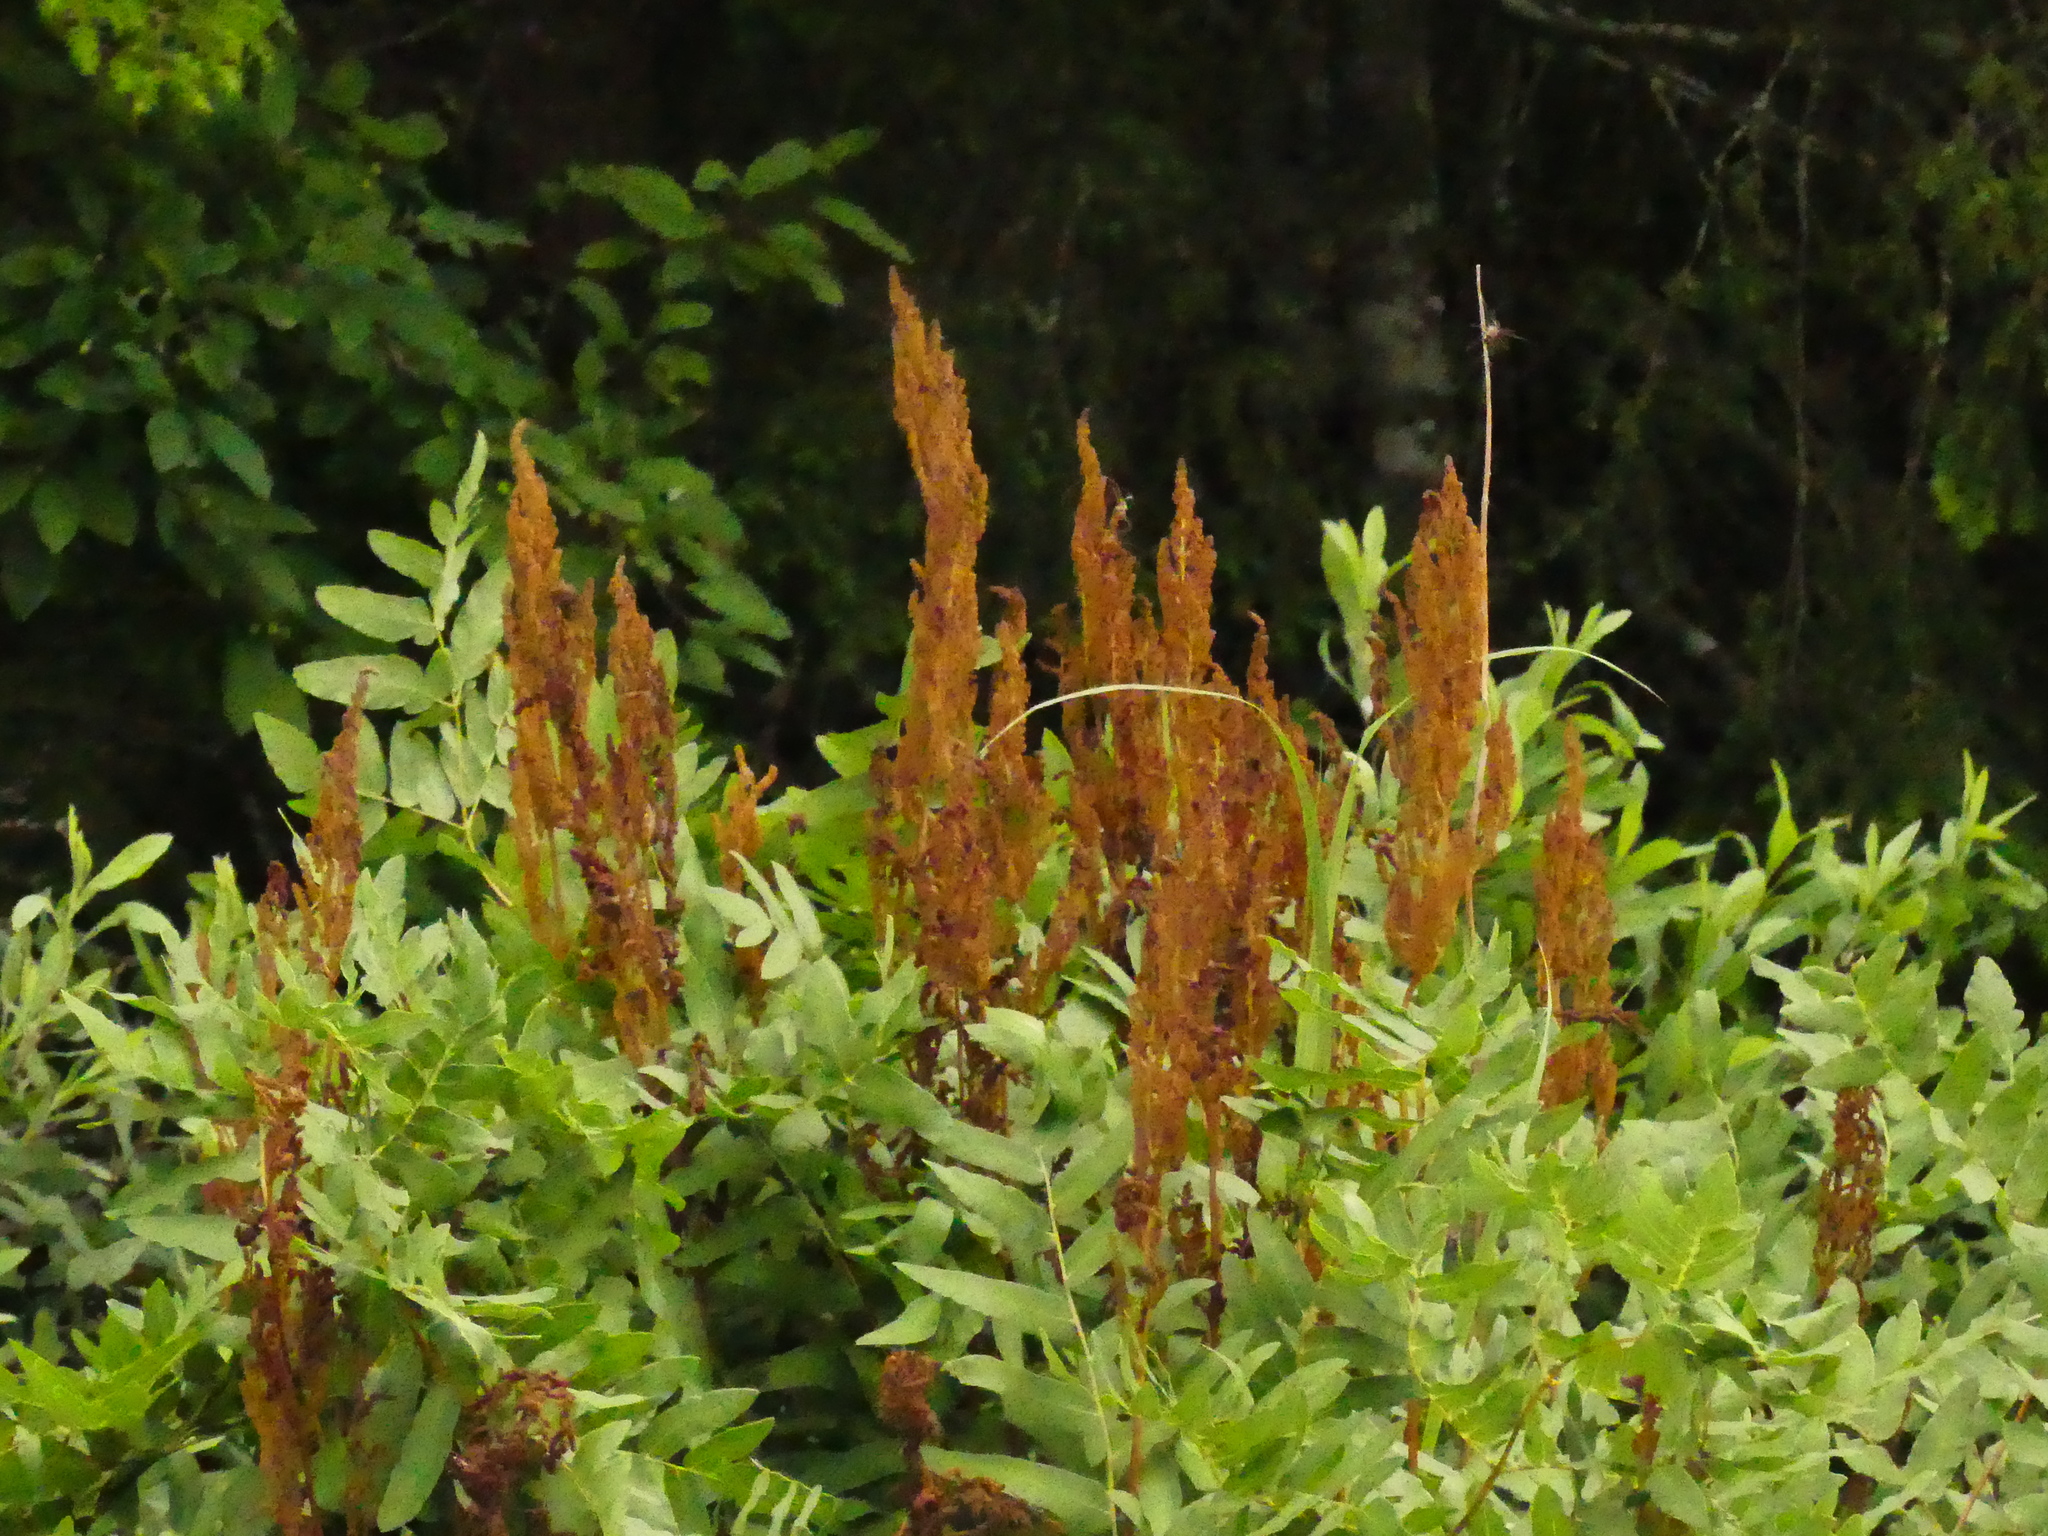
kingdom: Plantae
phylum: Tracheophyta
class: Polypodiopsida
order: Osmundales
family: Osmundaceae
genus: Osmunda
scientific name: Osmunda spectabilis
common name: American royal fern
